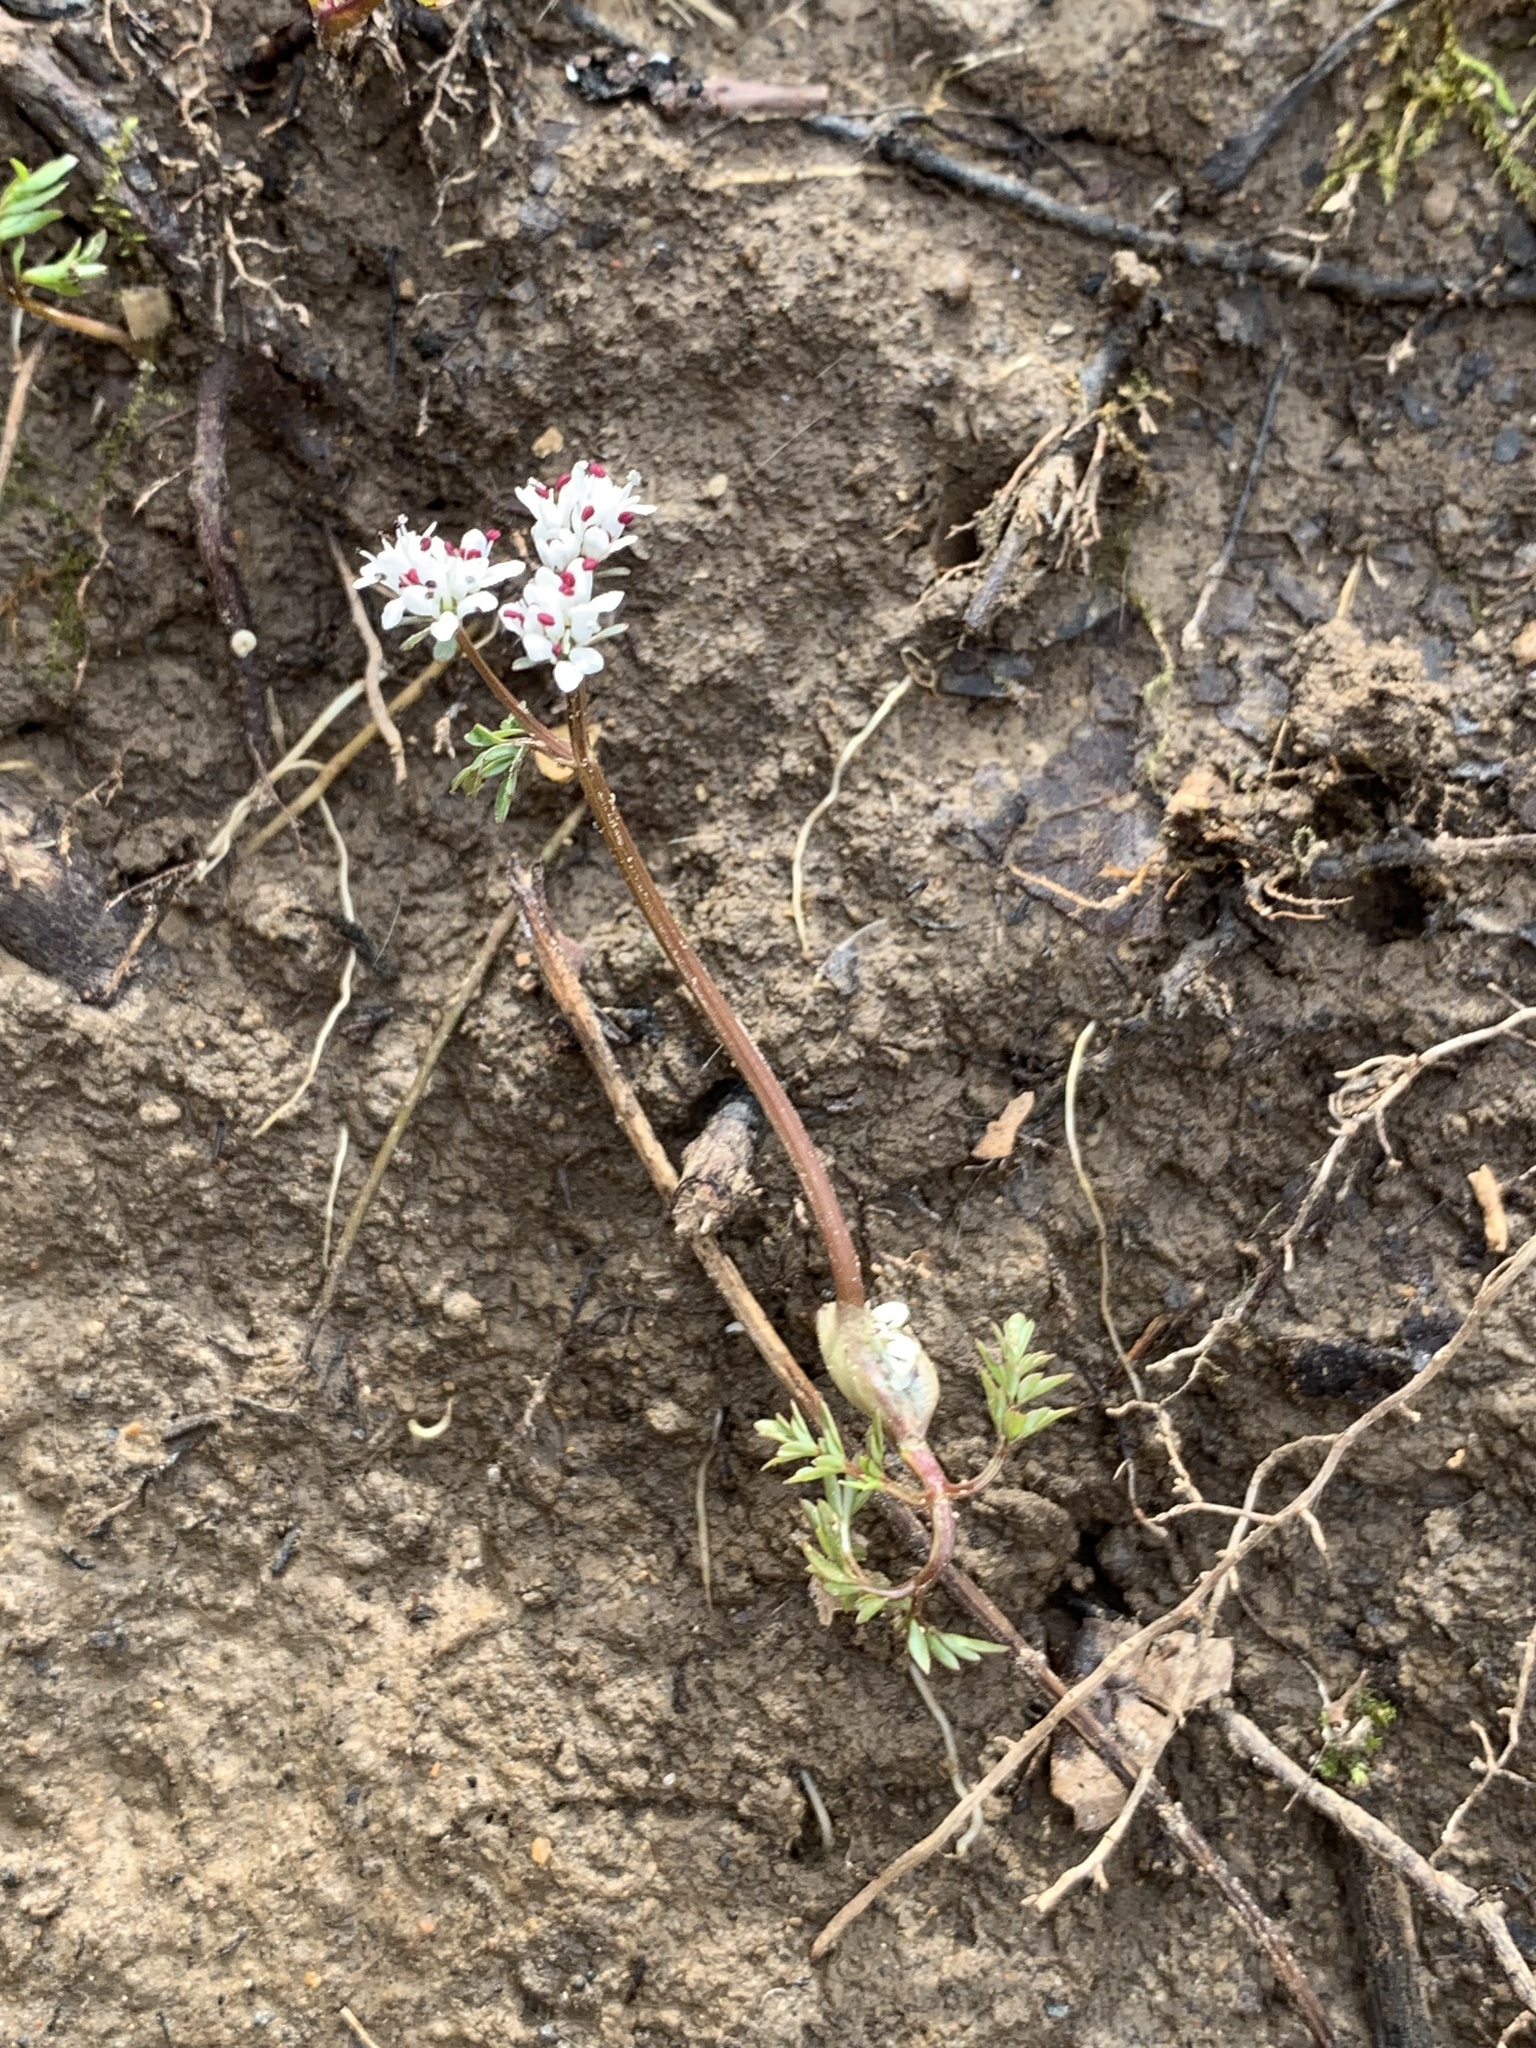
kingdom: Plantae
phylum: Tracheophyta
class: Magnoliopsida
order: Apiales
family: Apiaceae
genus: Erigenia
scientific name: Erigenia bulbosa
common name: Pepper-and-salt
